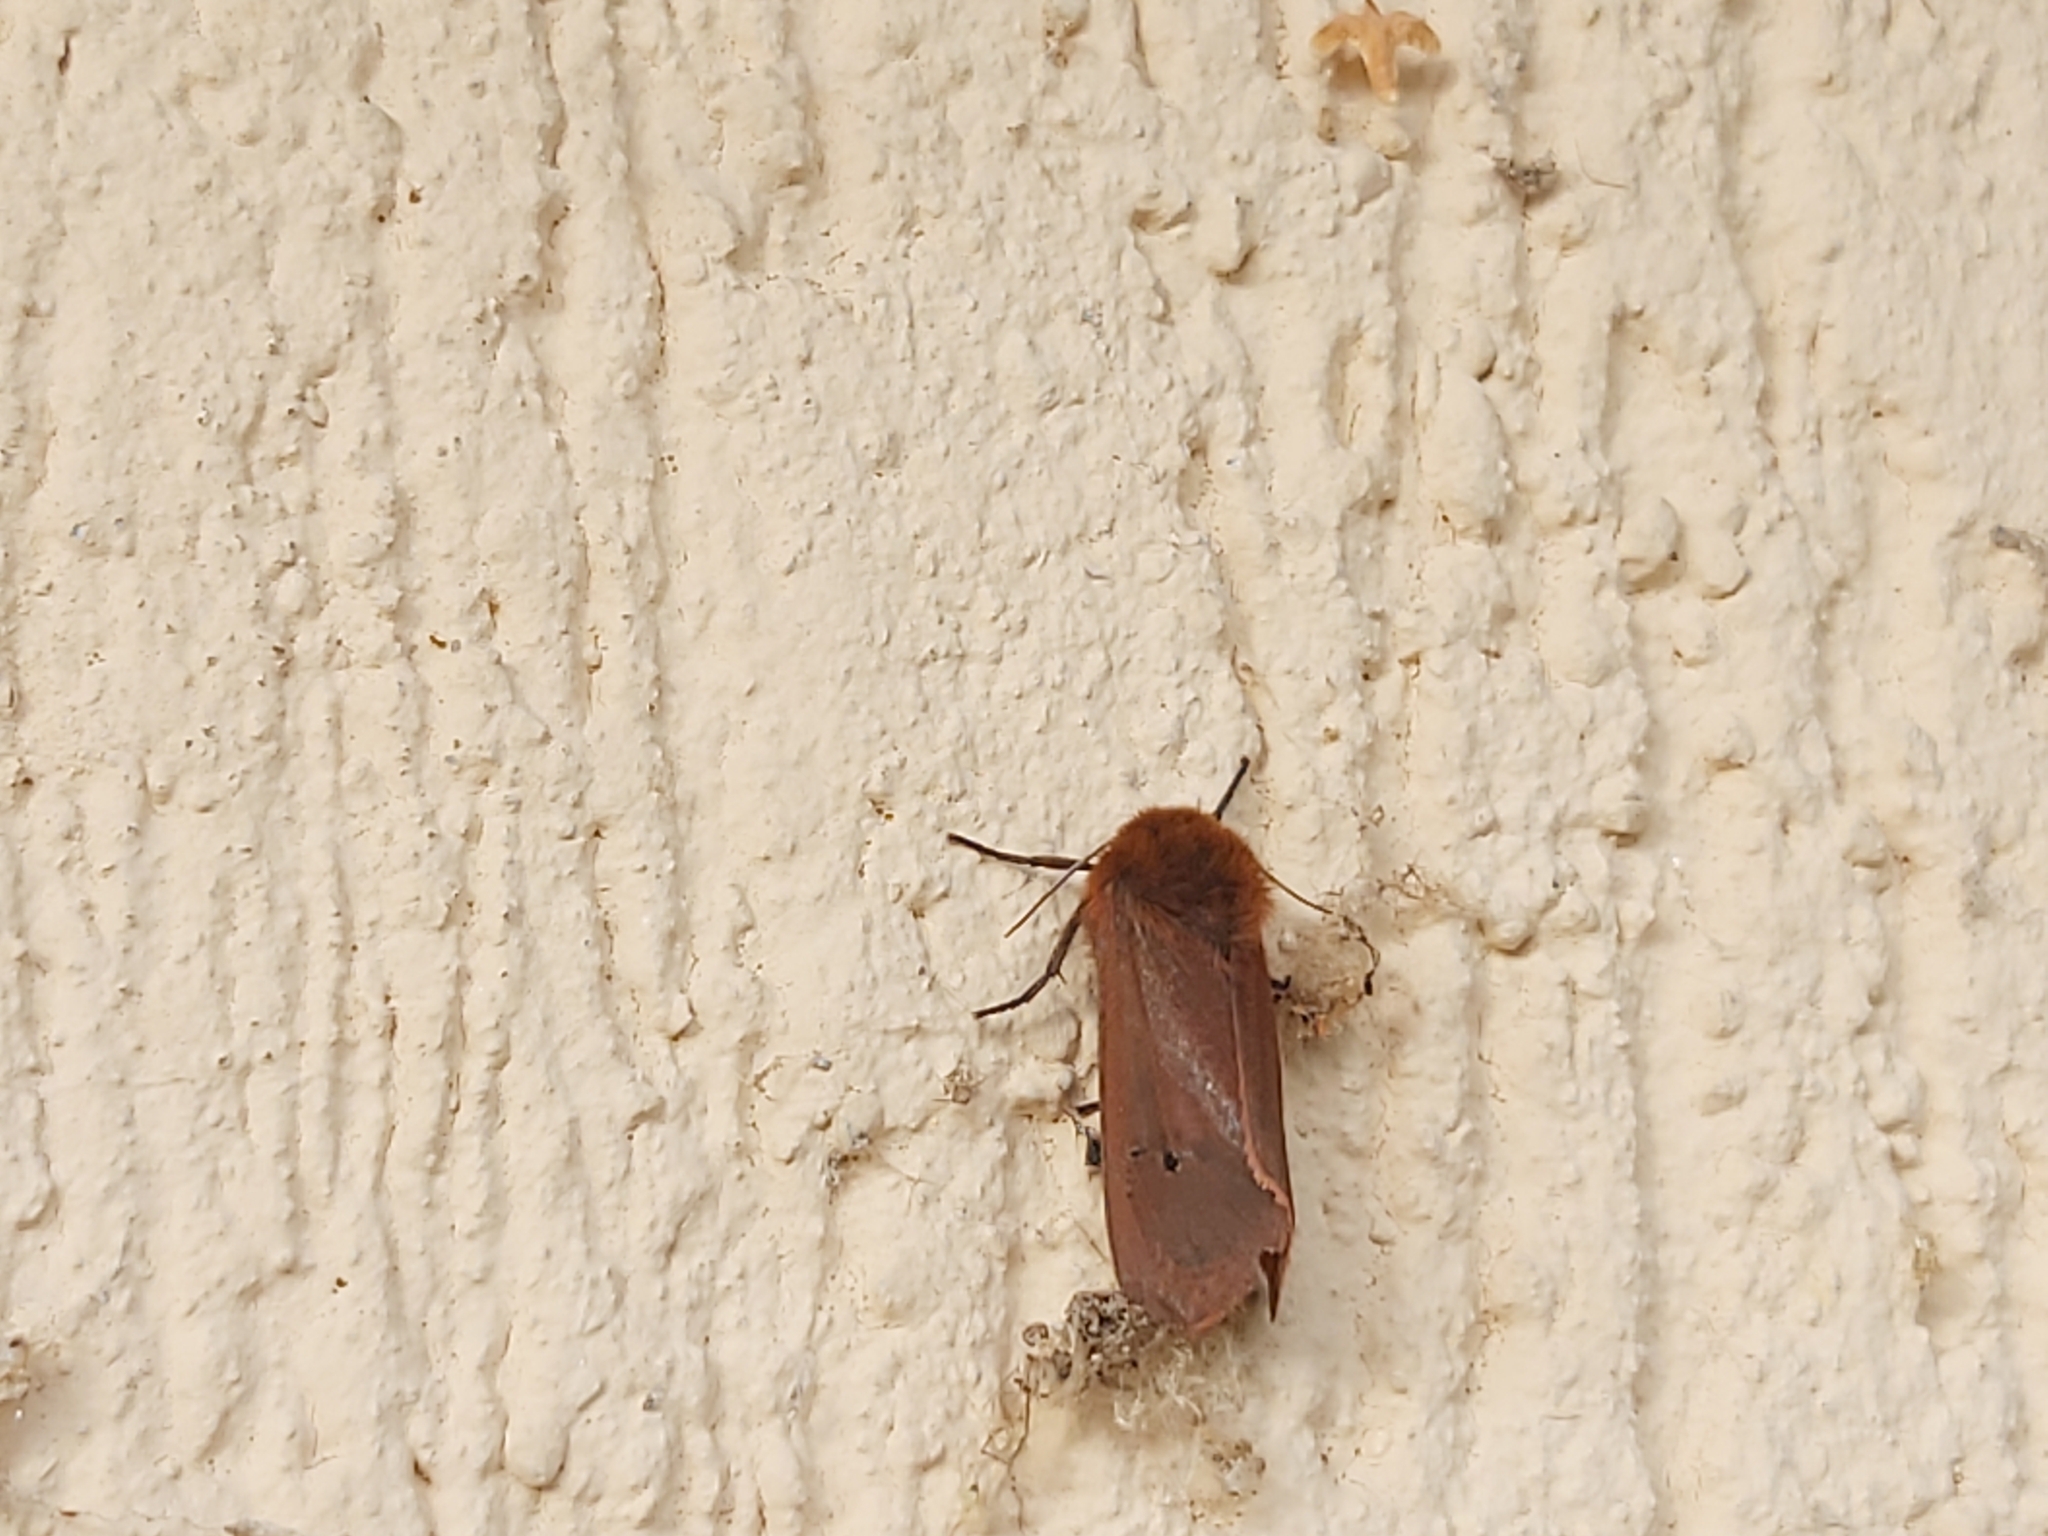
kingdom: Animalia
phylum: Arthropoda
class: Insecta
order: Lepidoptera
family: Erebidae
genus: Phragmatobia
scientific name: Phragmatobia fuliginosa
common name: Ruby tiger
